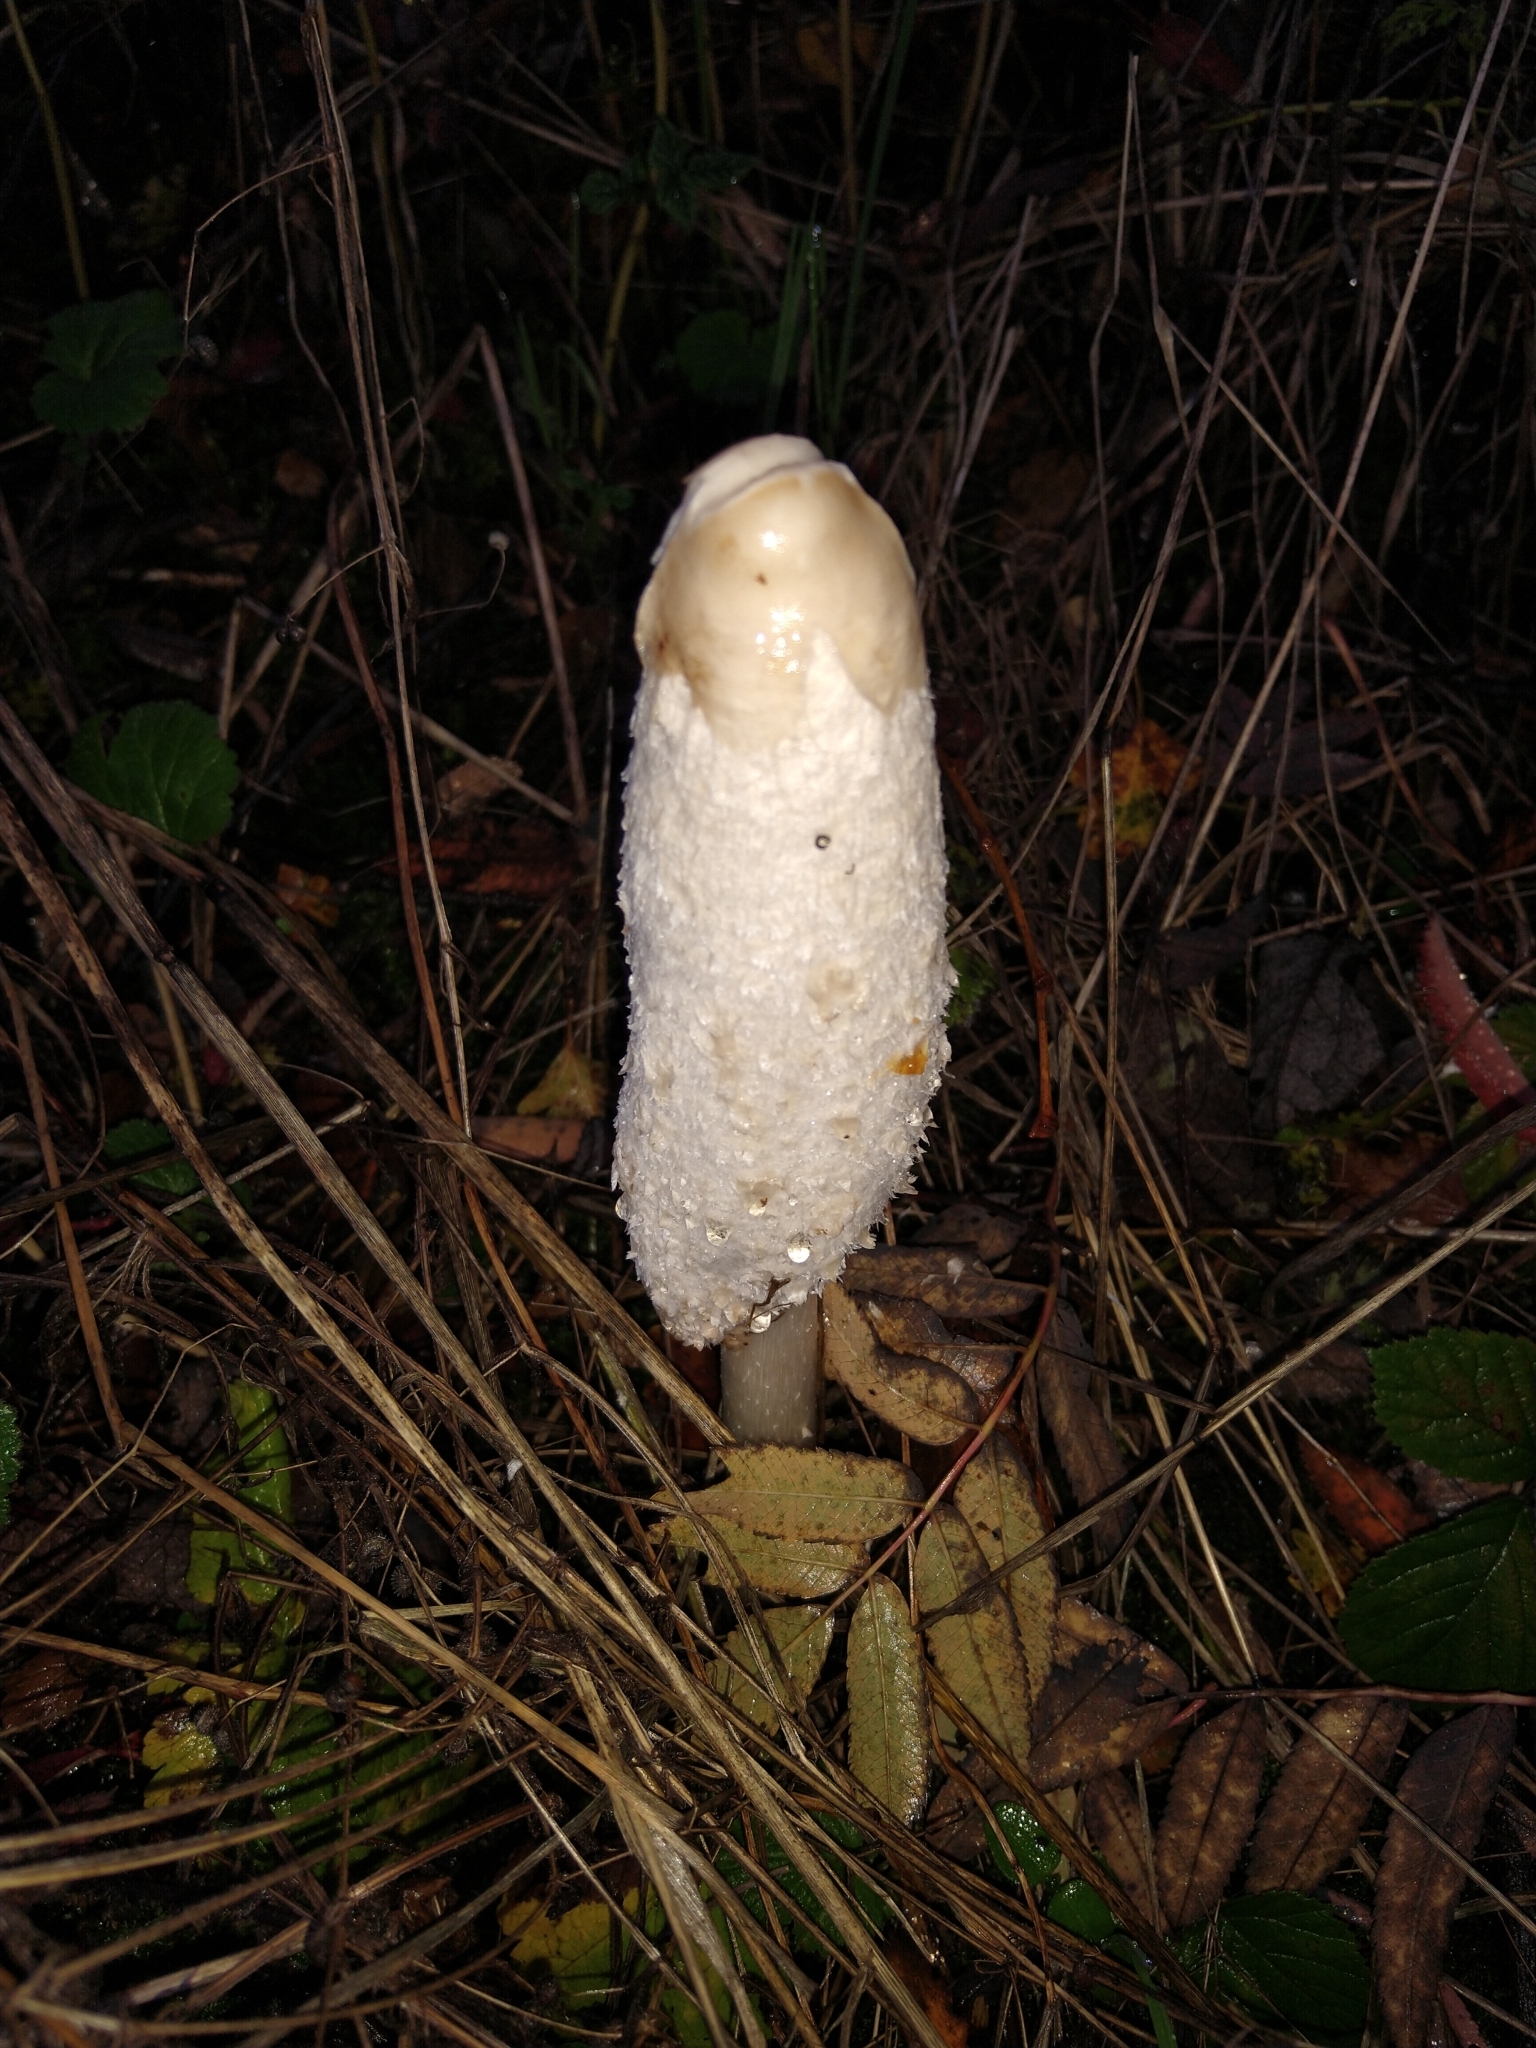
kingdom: Fungi
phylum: Basidiomycota
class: Agaricomycetes
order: Agaricales
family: Agaricaceae
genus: Coprinus
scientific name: Coprinus comatus
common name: Lawyer's wig
